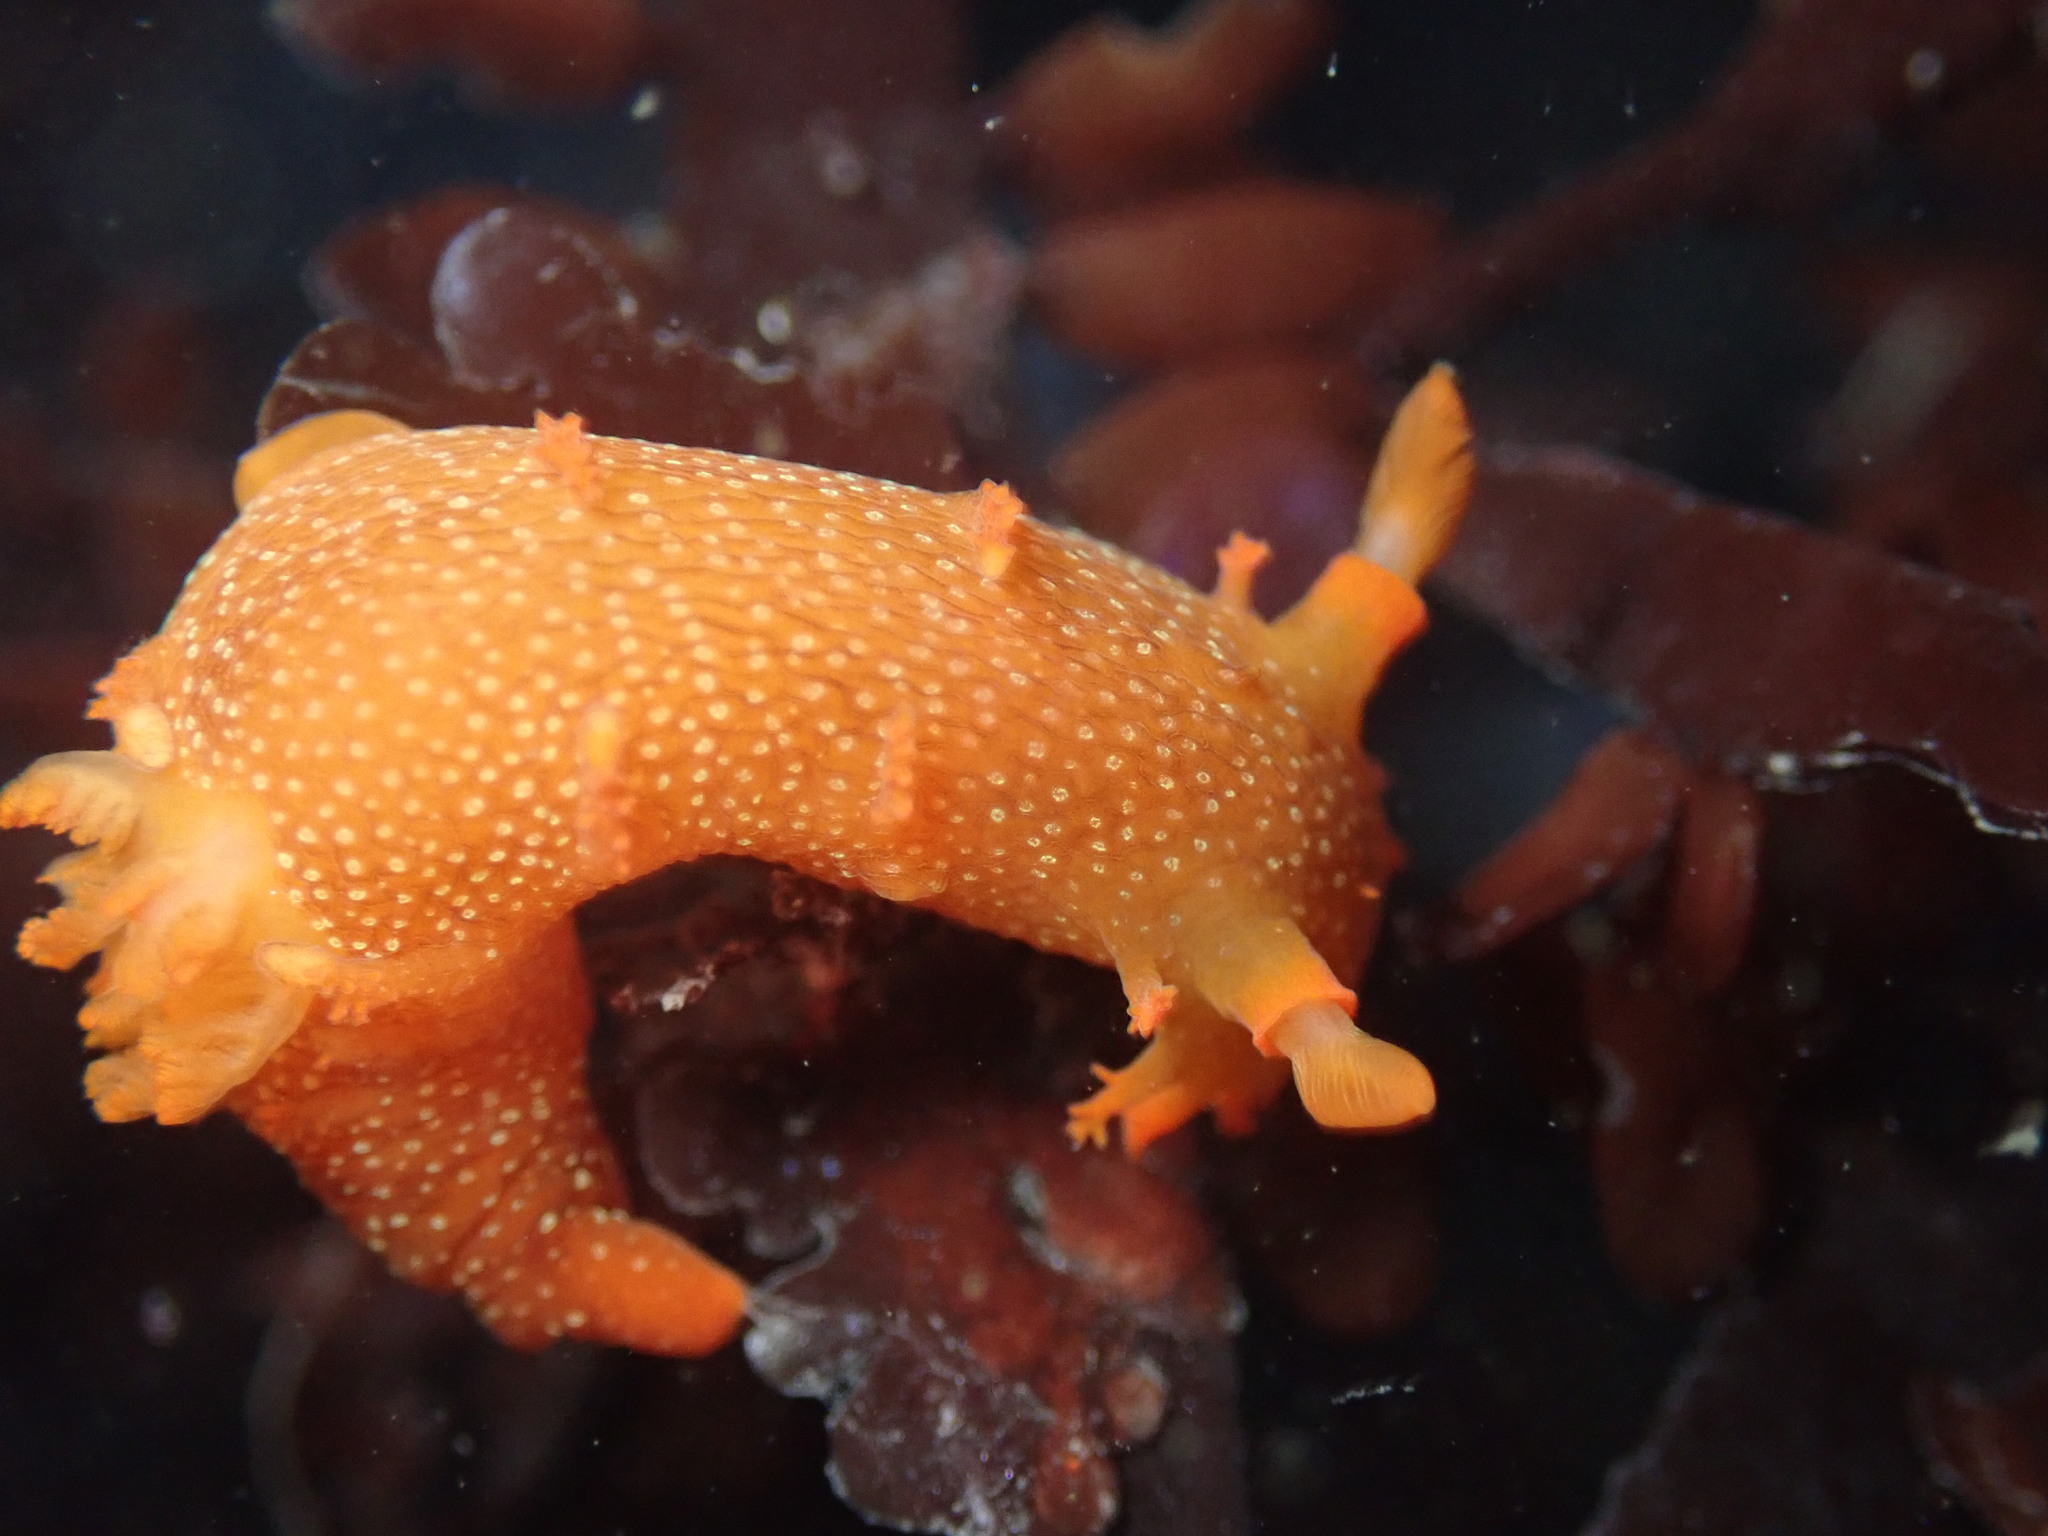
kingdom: Animalia
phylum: Mollusca
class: Gastropoda
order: Nudibranchia
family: Polyceridae
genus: Triopha
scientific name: Triopha maculata
